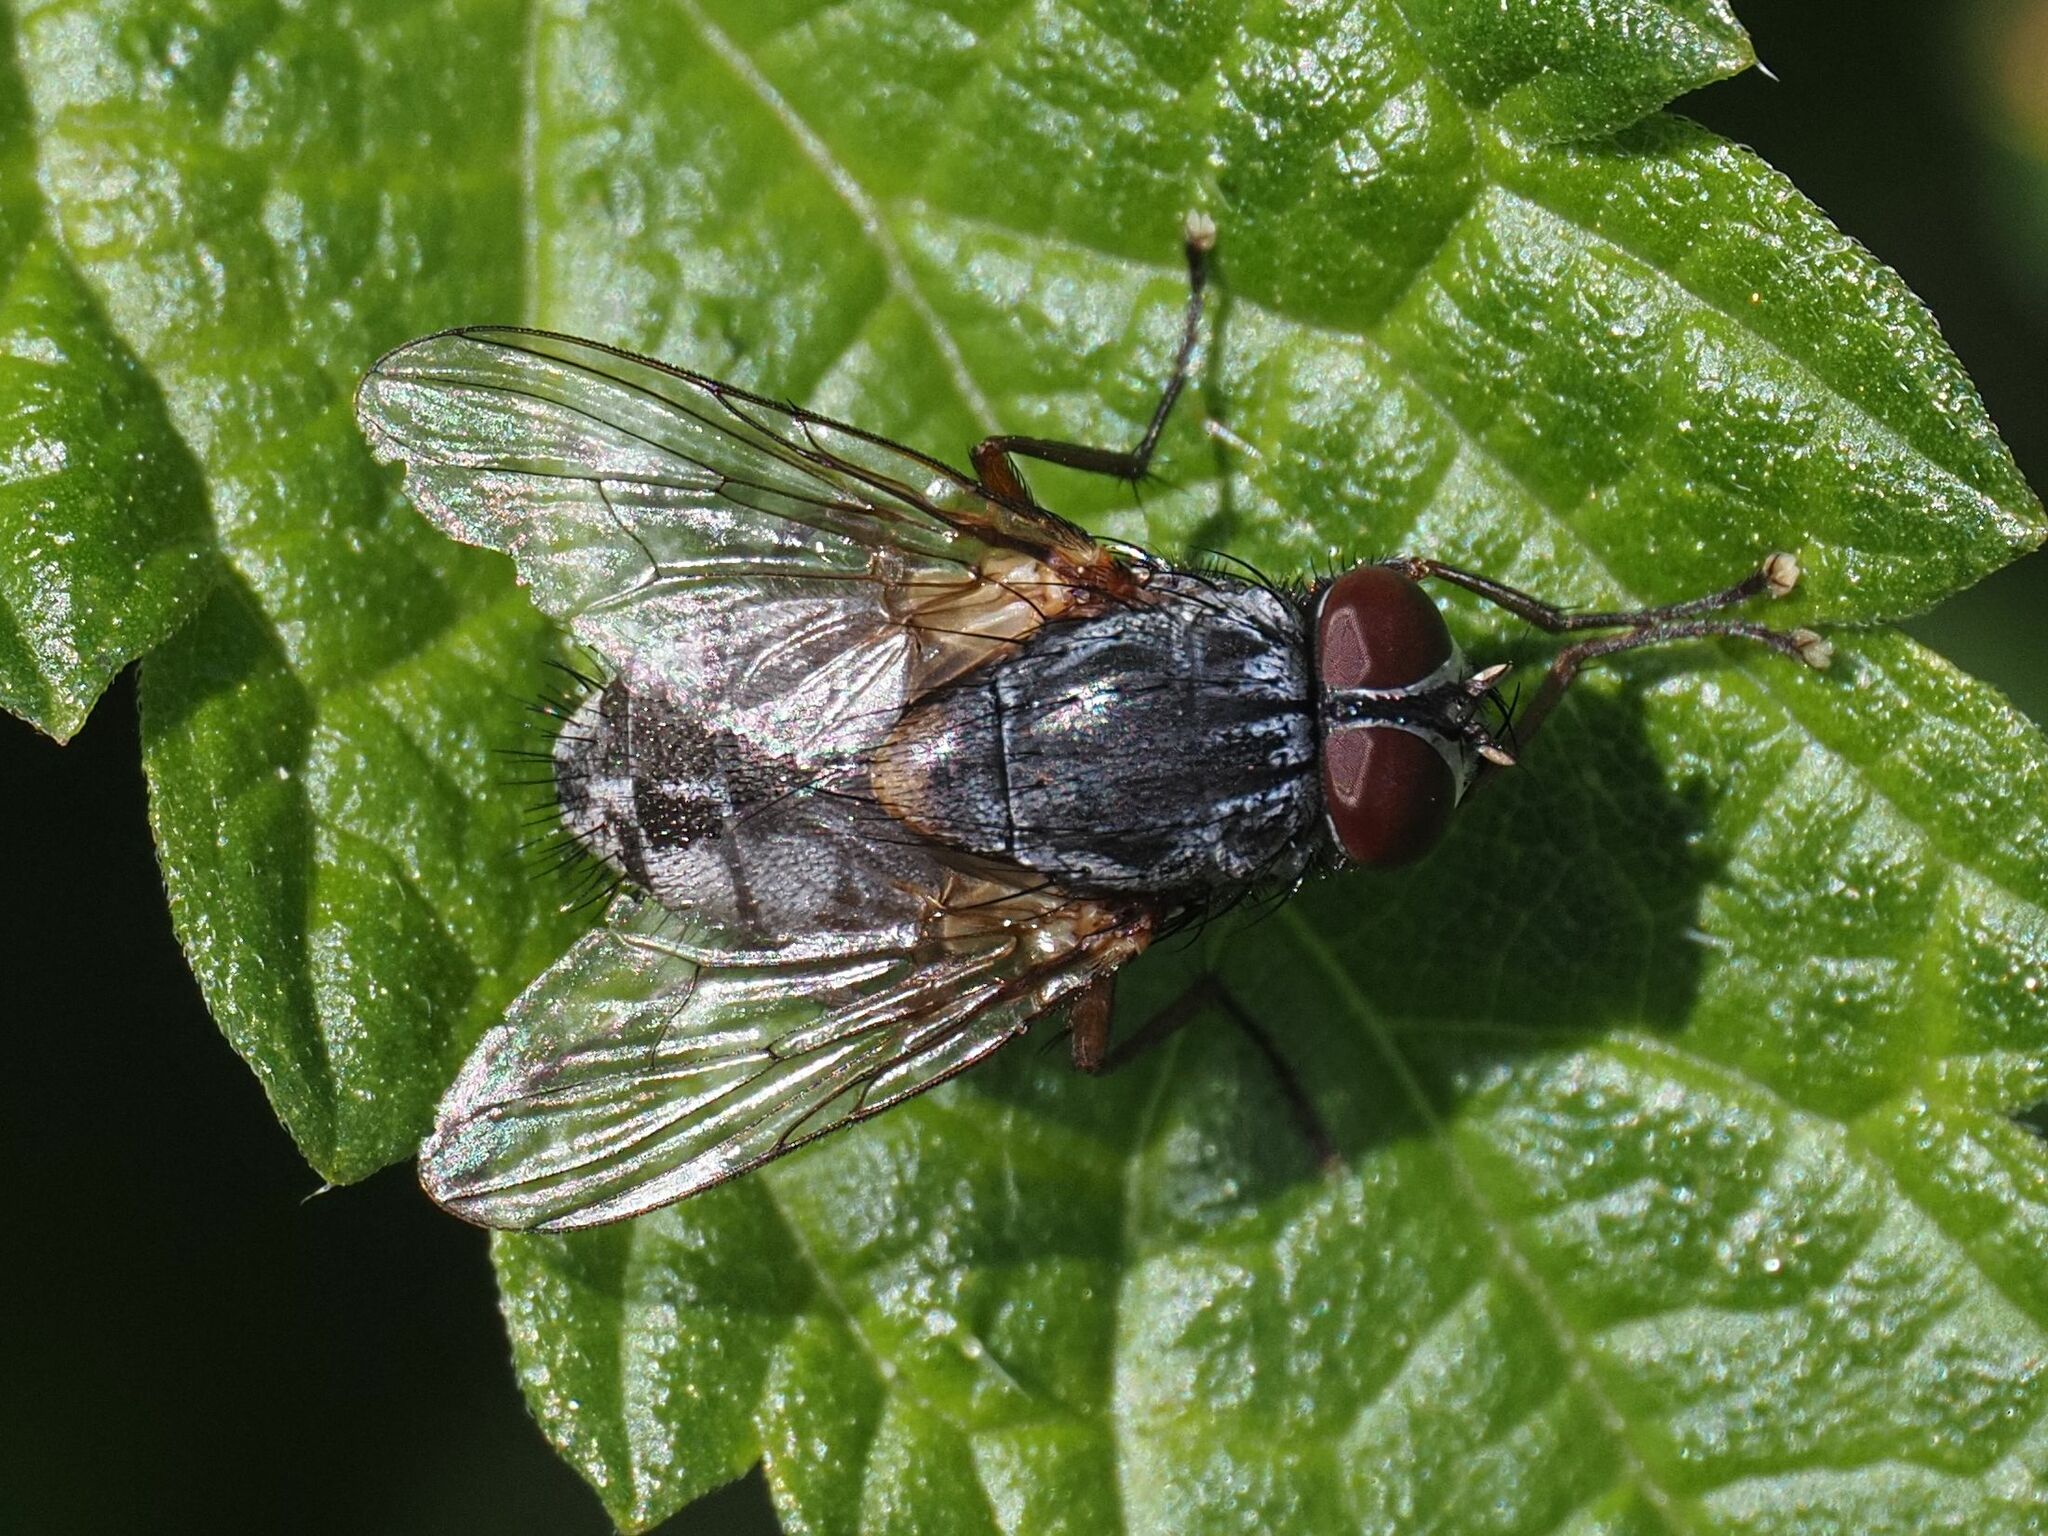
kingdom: Animalia
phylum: Arthropoda
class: Insecta
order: Diptera
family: Muscidae
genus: Muscina
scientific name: Muscina stabulans
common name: False stable fly
